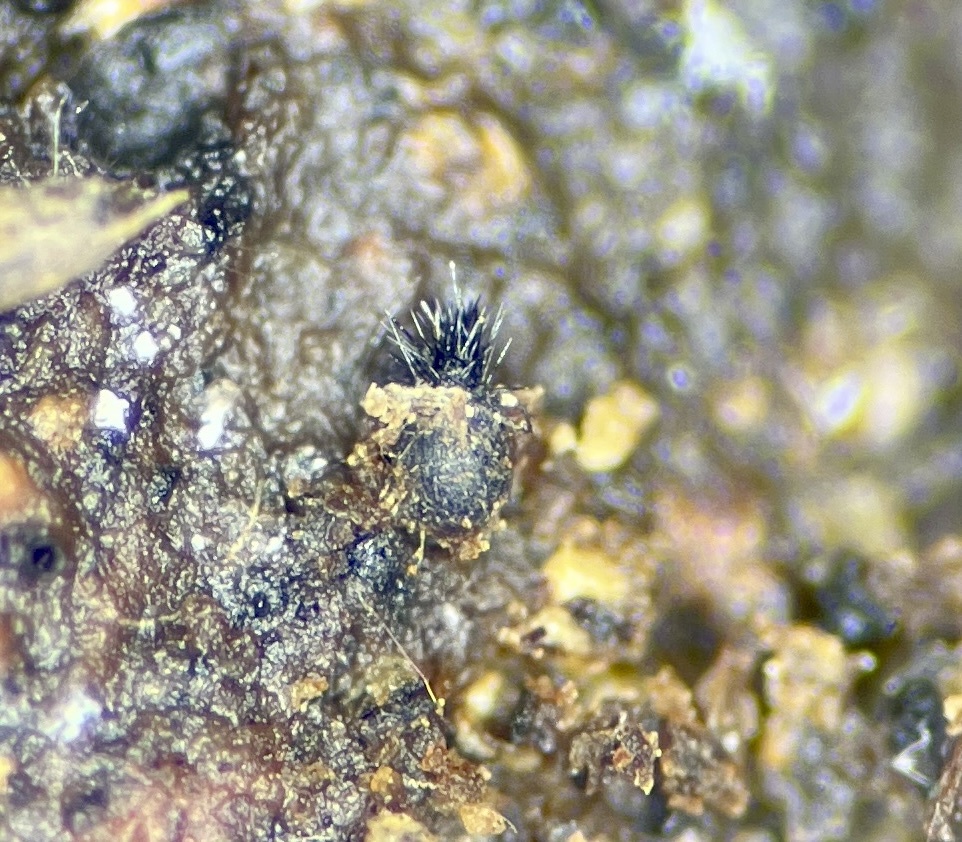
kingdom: Fungi
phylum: Ascomycota
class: Dothideomycetes
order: Phaeotrichales
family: Phaeotrichaceae
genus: Trichodelitschia
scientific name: Trichodelitschia munkii
